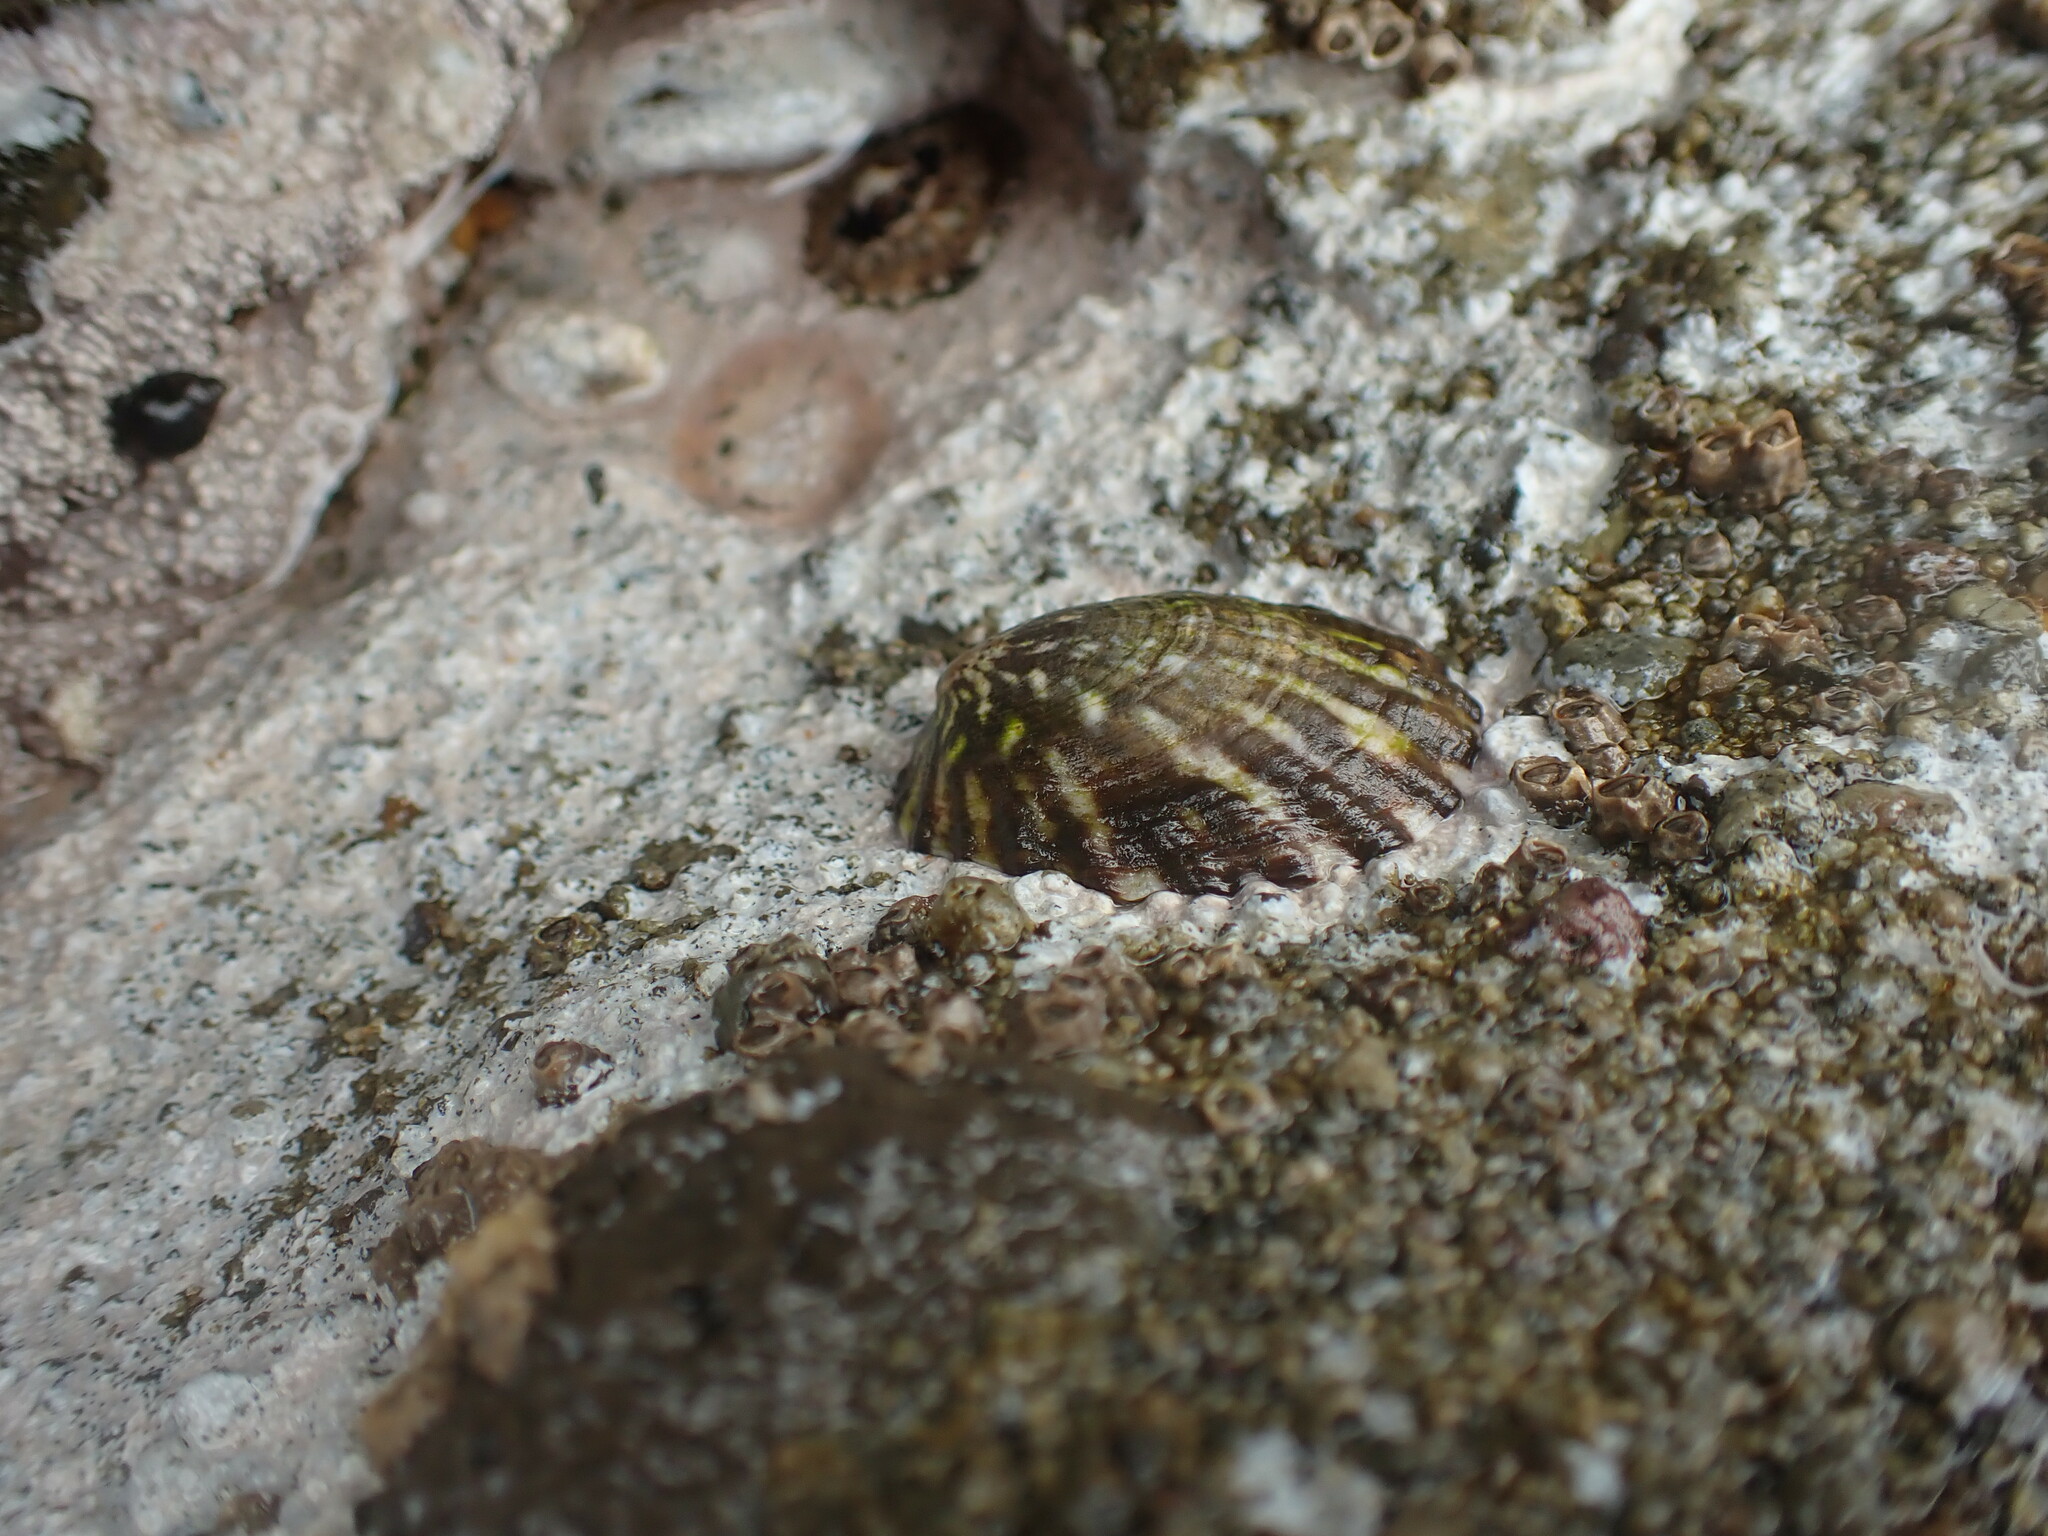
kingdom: Animalia
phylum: Mollusca
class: Gastropoda
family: Nacellidae
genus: Cellana
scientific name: Cellana strigilis
